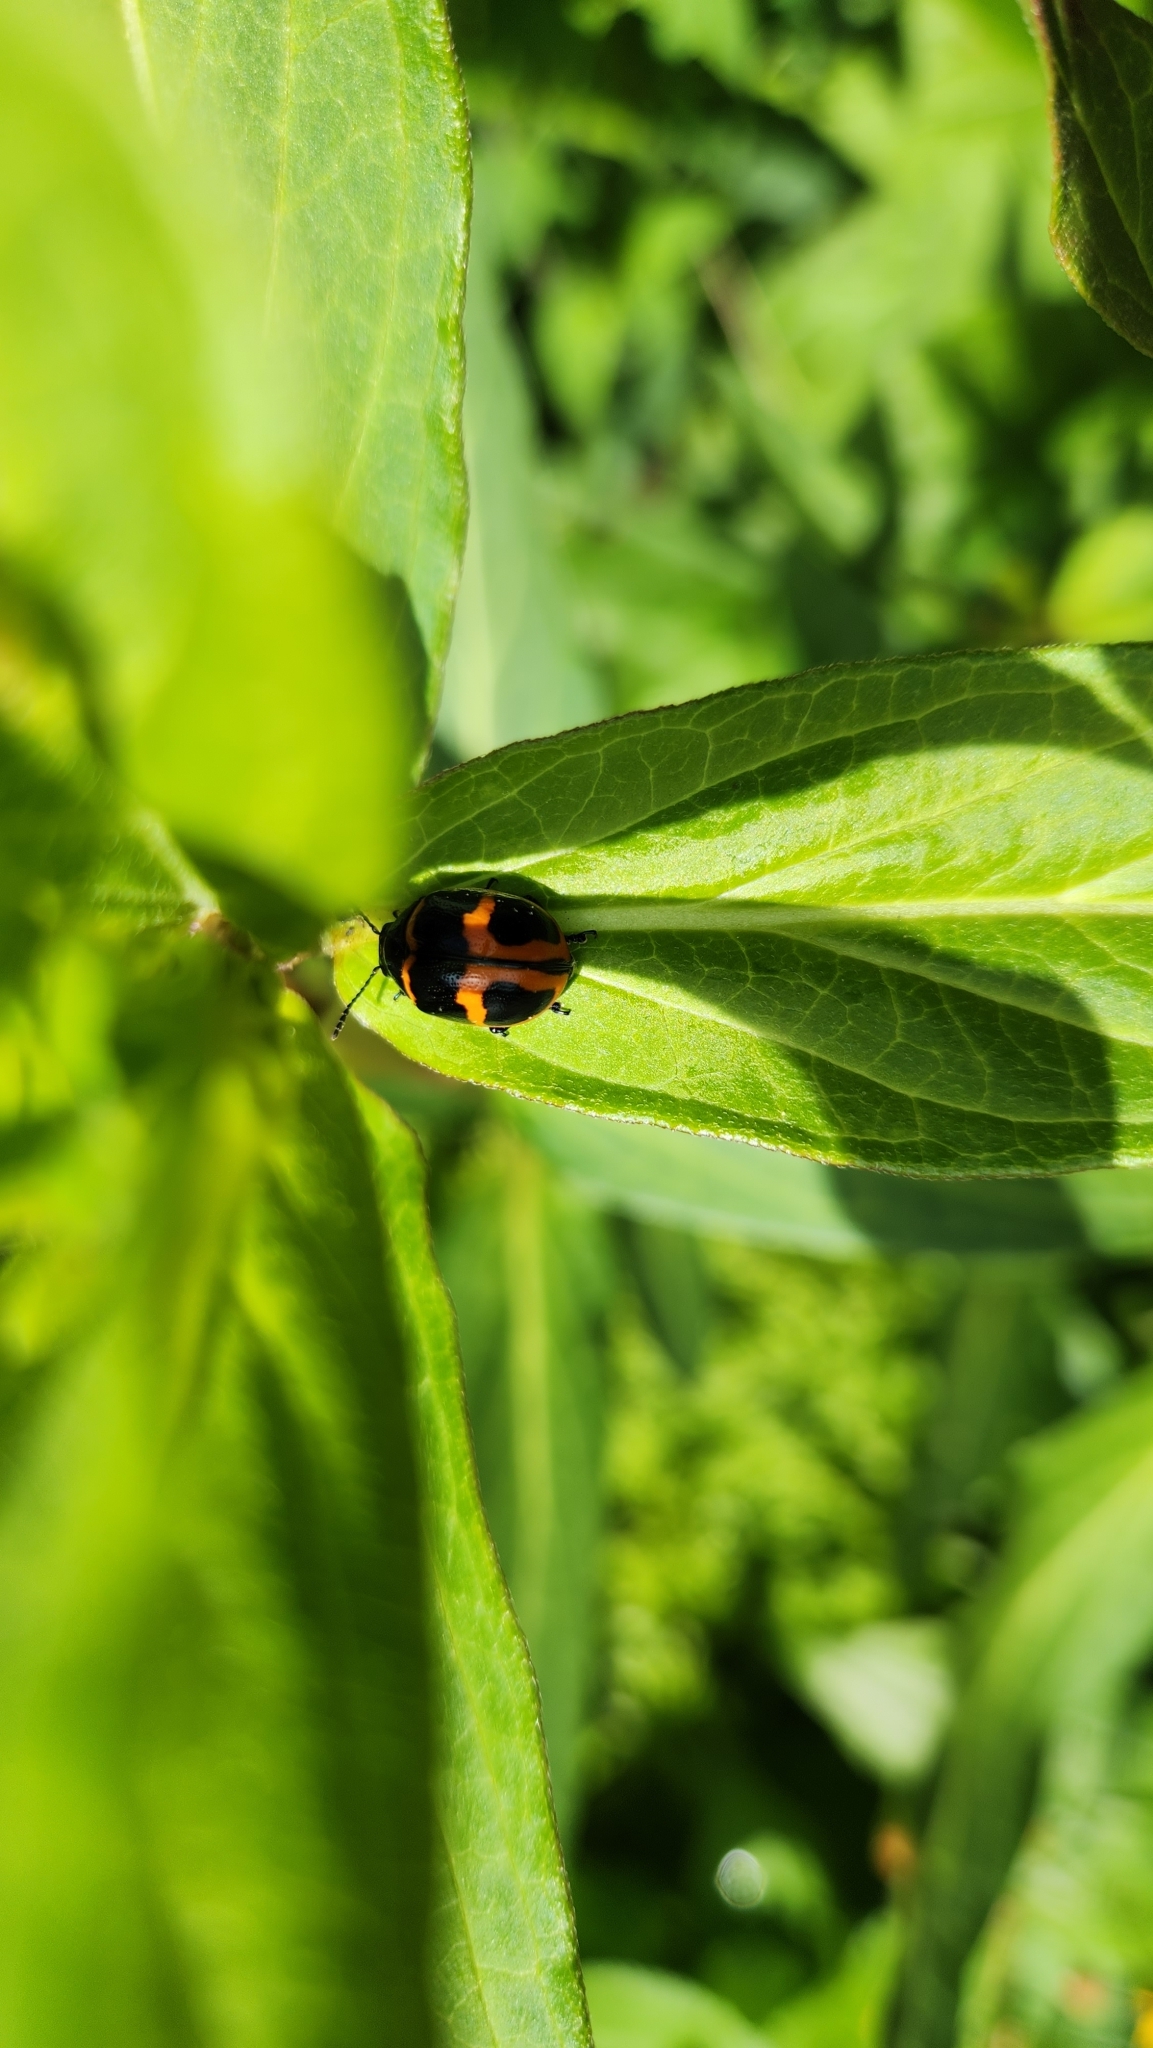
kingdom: Animalia
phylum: Arthropoda
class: Insecta
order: Coleoptera
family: Chrysomelidae
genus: Labidomera
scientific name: Labidomera clivicollis
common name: Swamp milkweed leaf beetle
